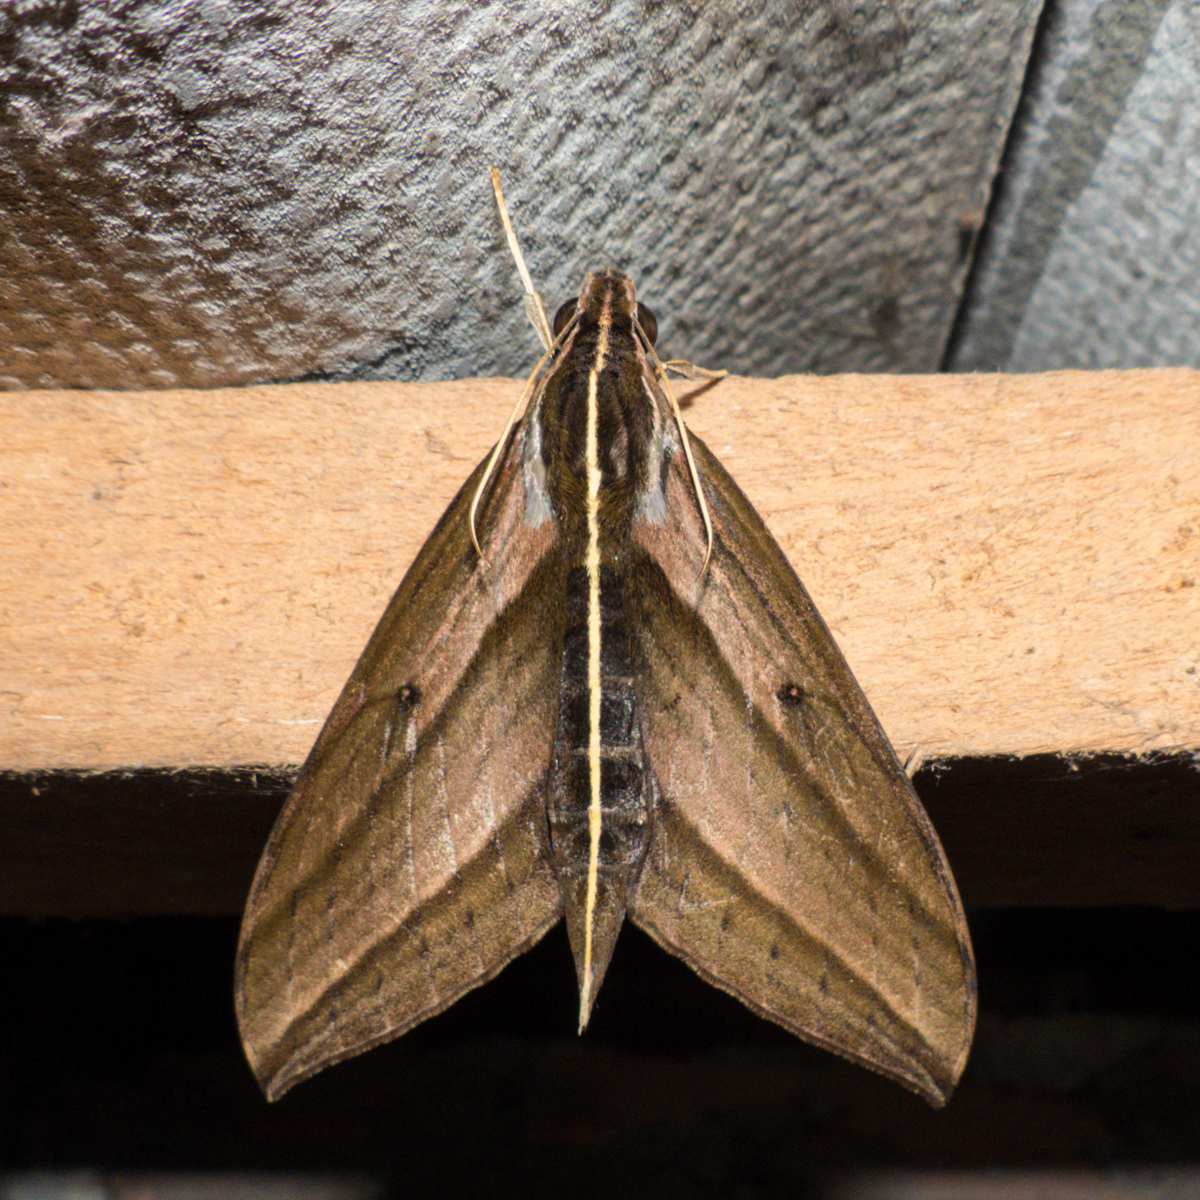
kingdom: Animalia
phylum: Arthropoda
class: Insecta
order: Lepidoptera
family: Sphingidae
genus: Elibia
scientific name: Elibia dolichus
